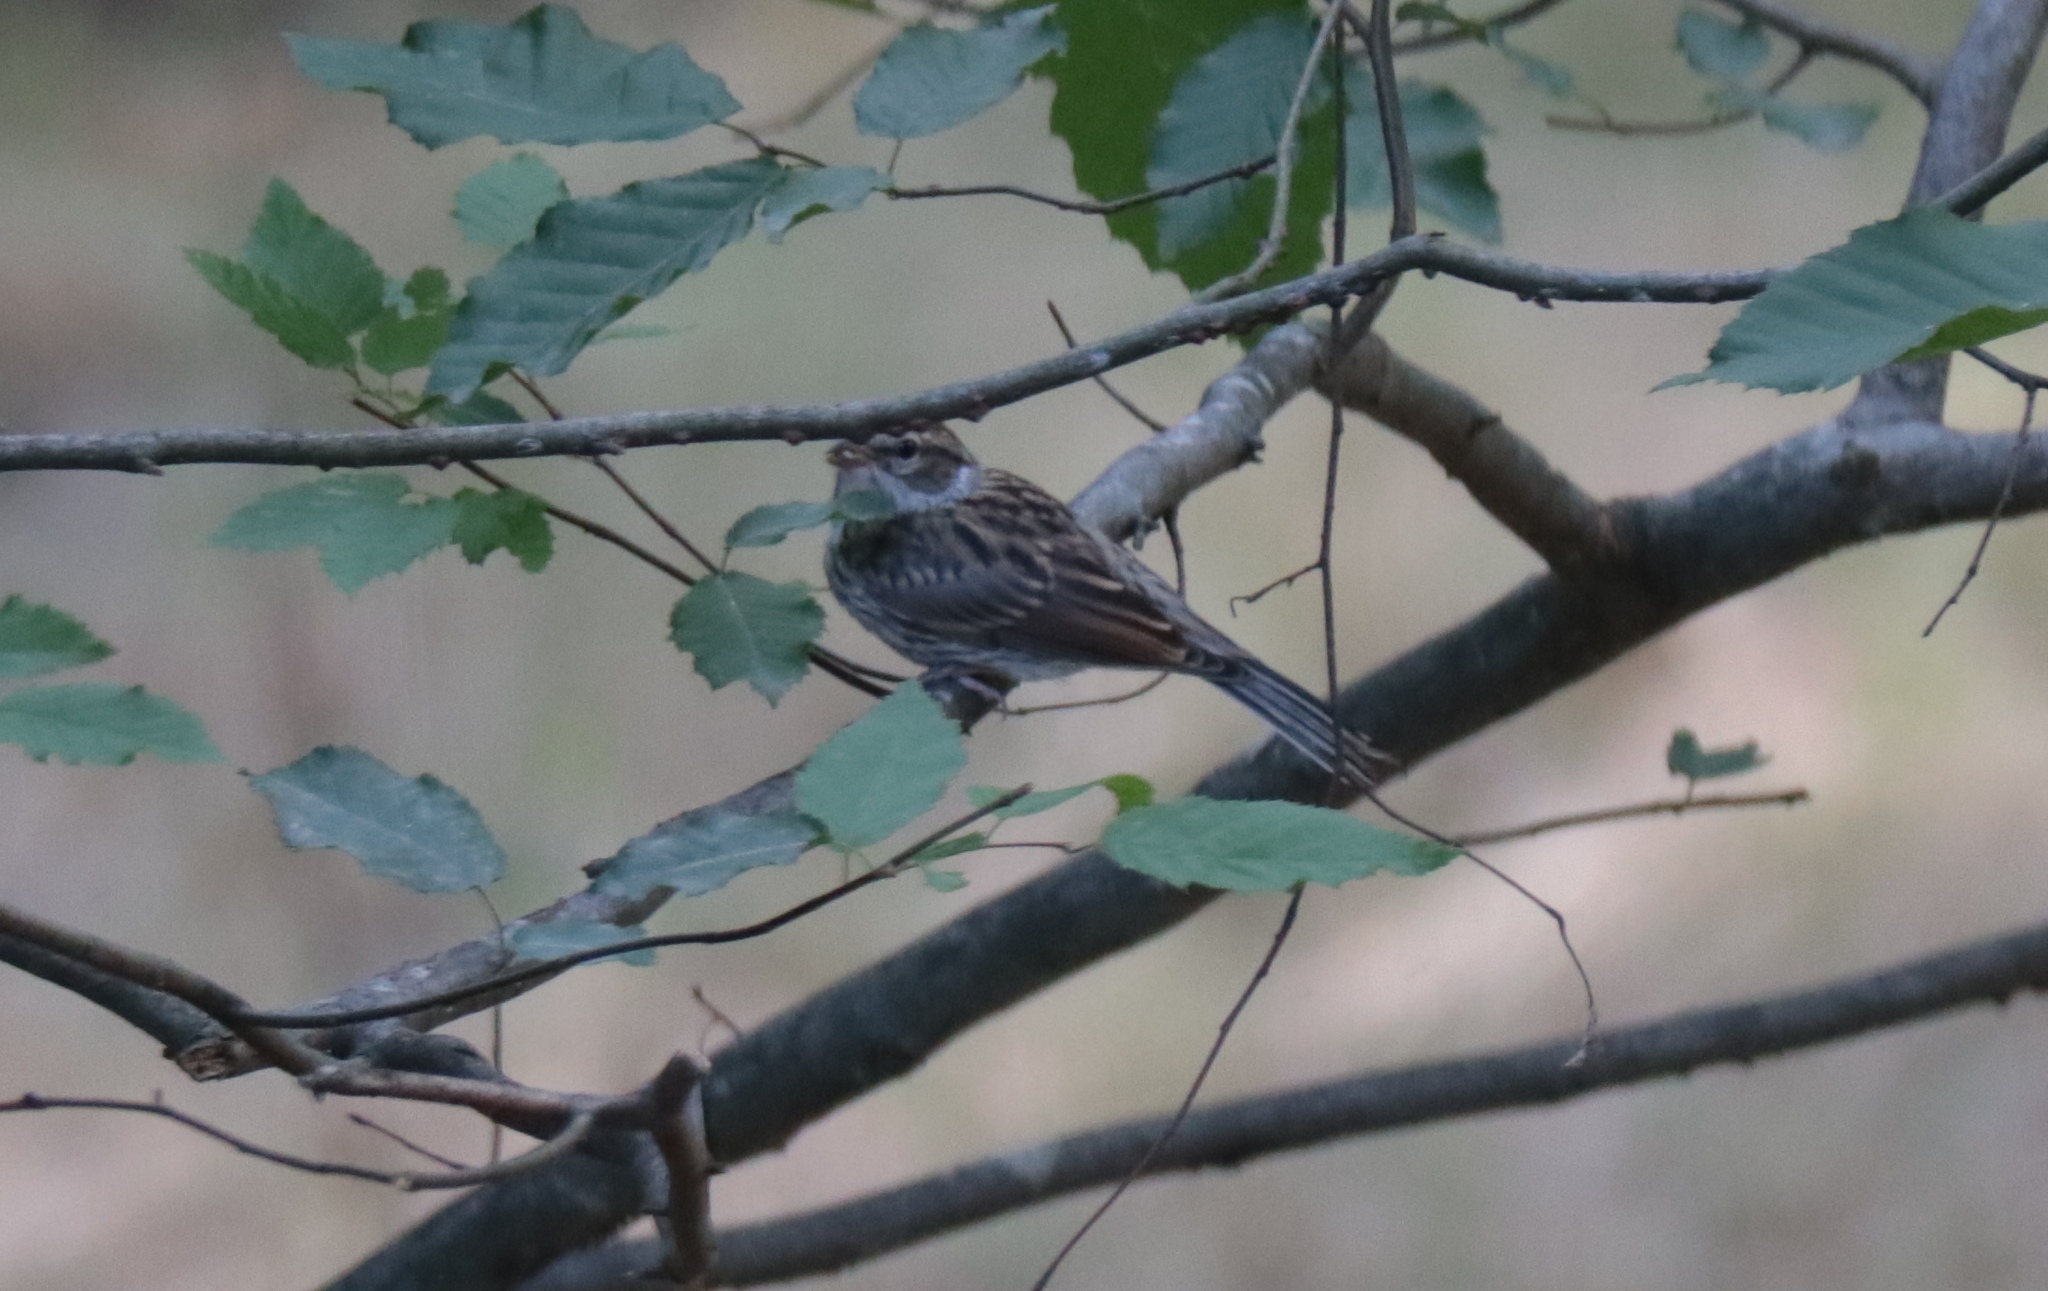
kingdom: Animalia
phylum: Chordata
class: Aves
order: Passeriformes
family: Passerellidae
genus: Spizella
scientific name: Spizella passerina
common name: Chipping sparrow
